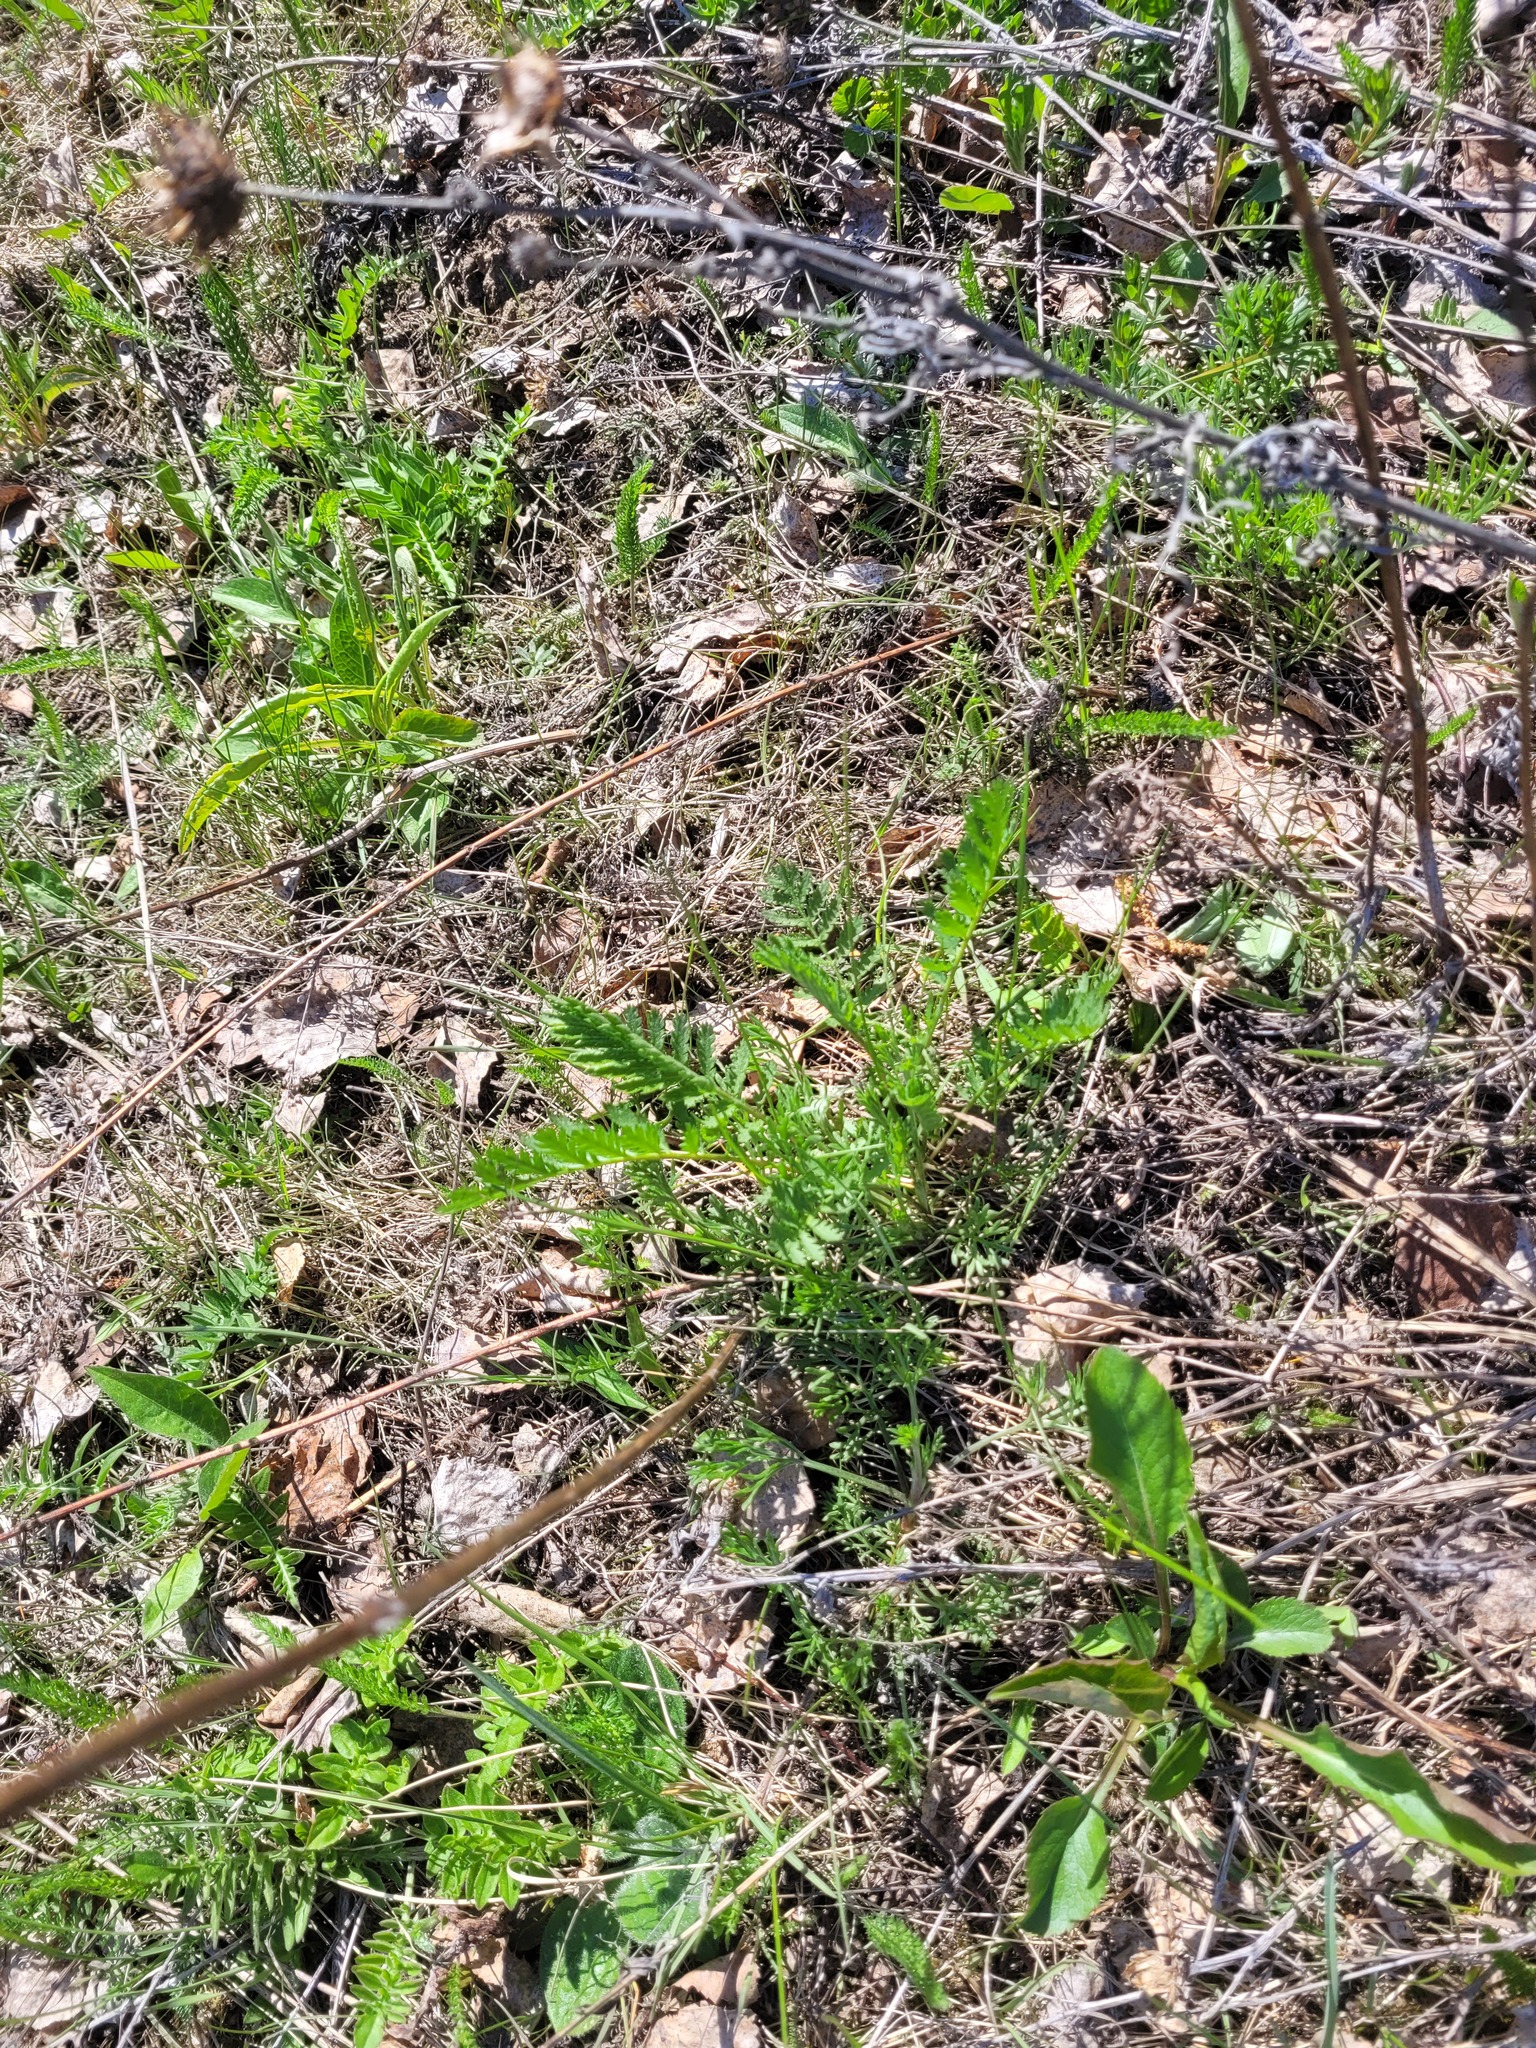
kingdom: Plantae
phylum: Tracheophyta
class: Magnoliopsida
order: Asterales
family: Asteraceae
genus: Tanacetum
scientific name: Tanacetum vulgare
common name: Common tansy
